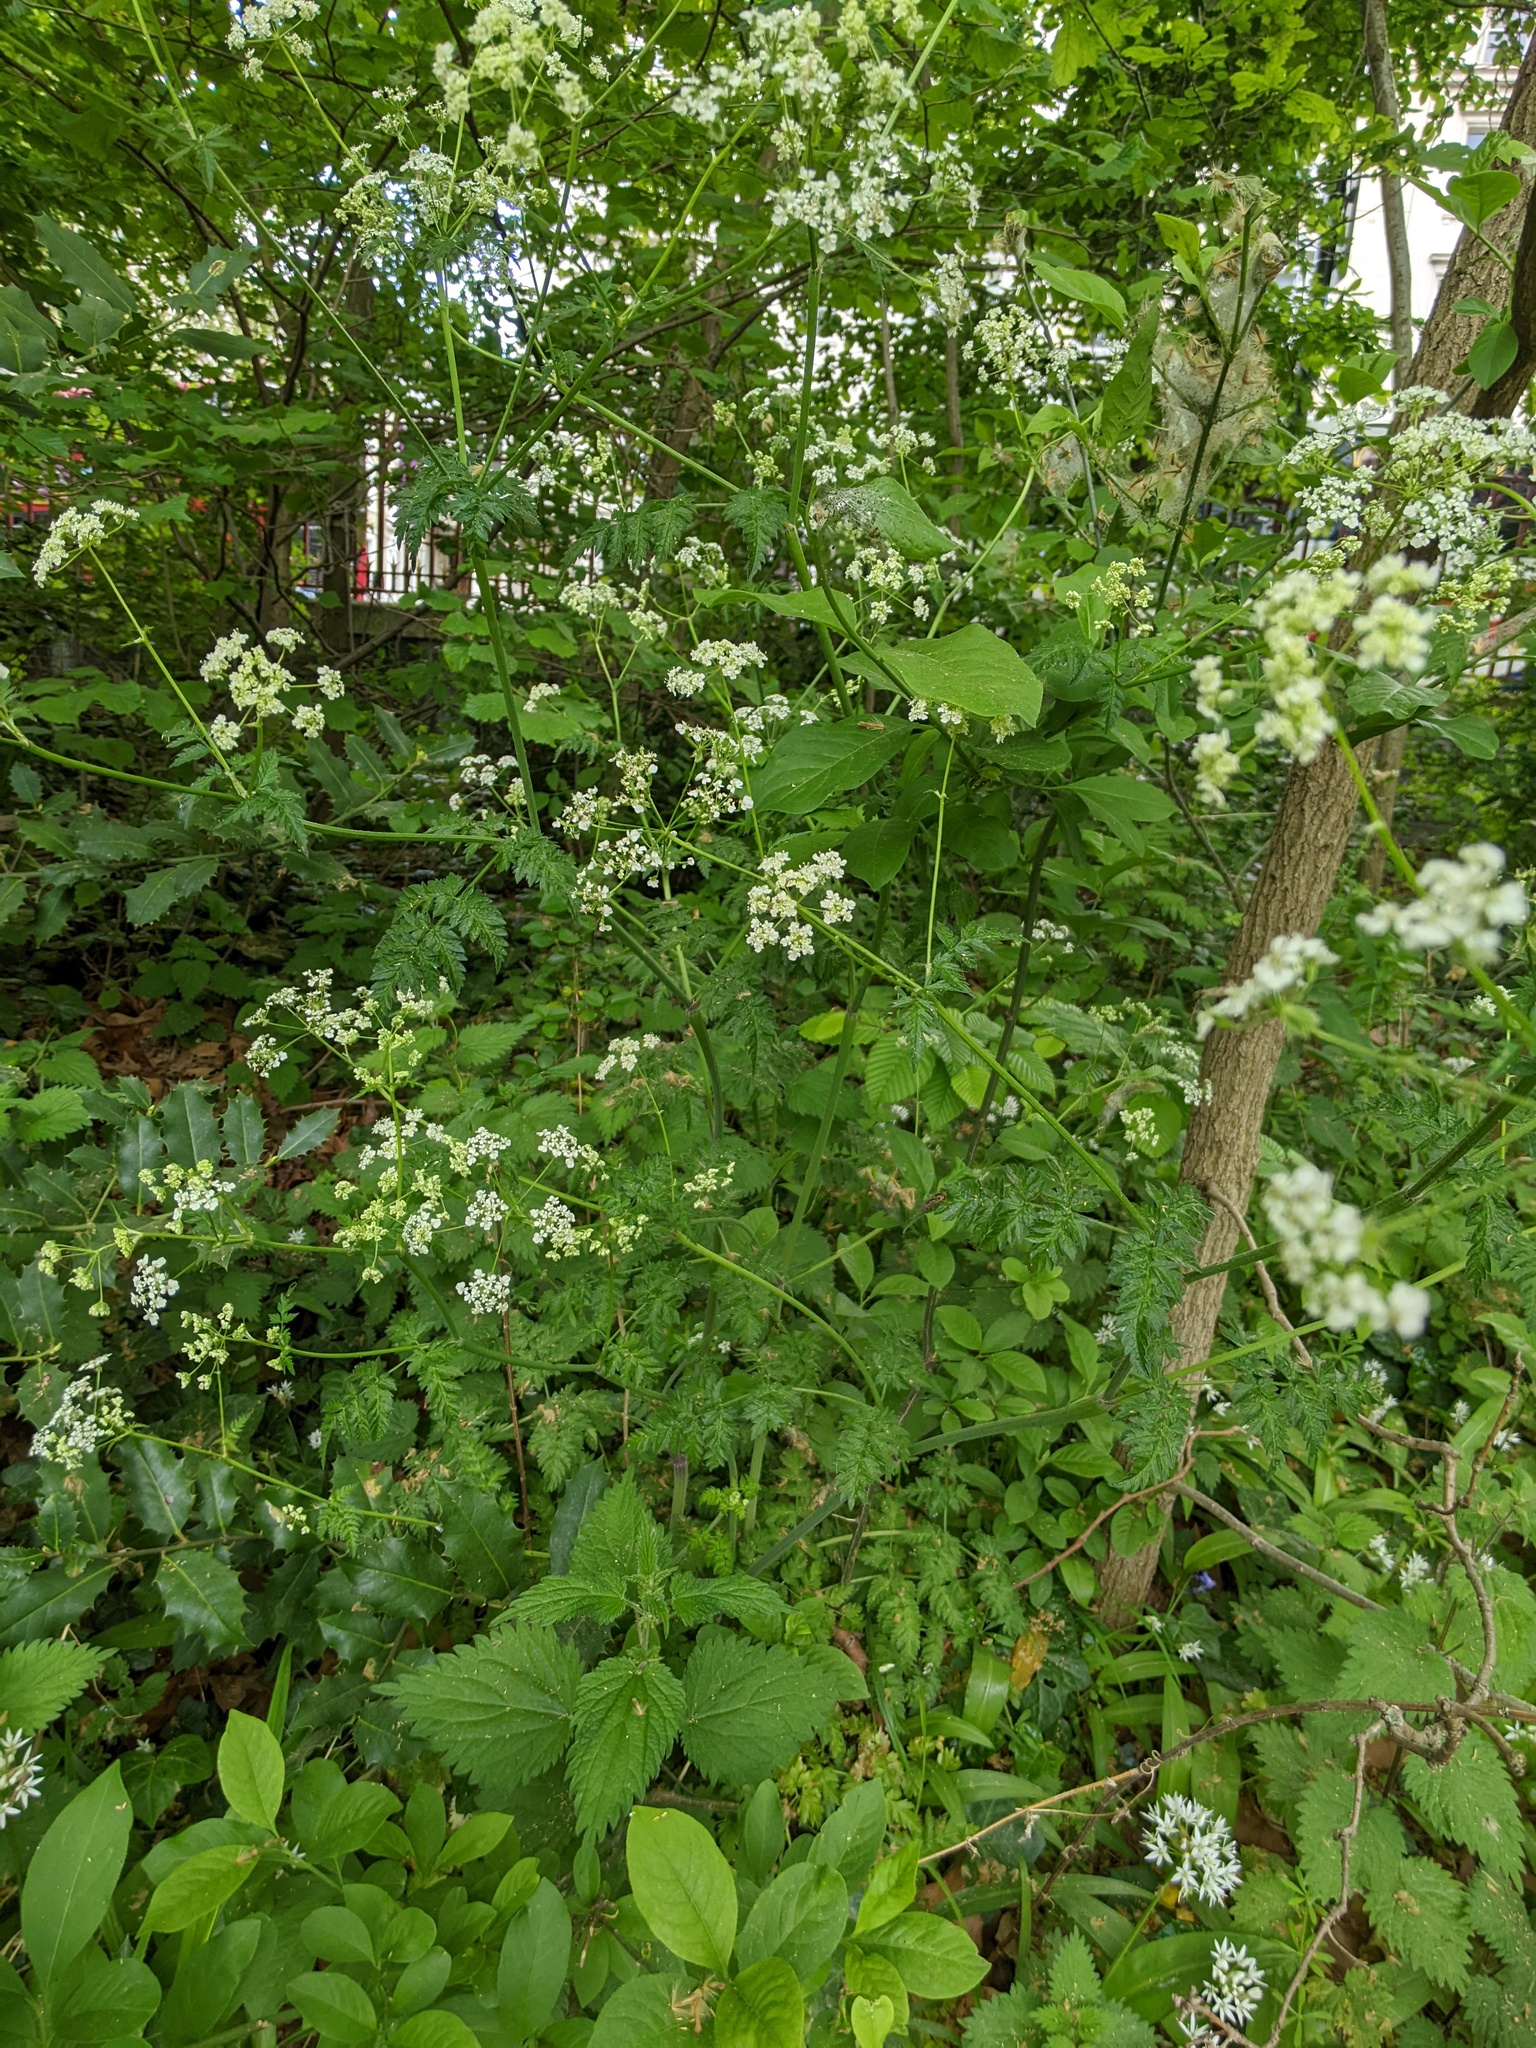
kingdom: Plantae
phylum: Tracheophyta
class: Magnoliopsida
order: Apiales
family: Apiaceae
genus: Anthriscus
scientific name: Anthriscus sylvestris
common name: Cow parsley
